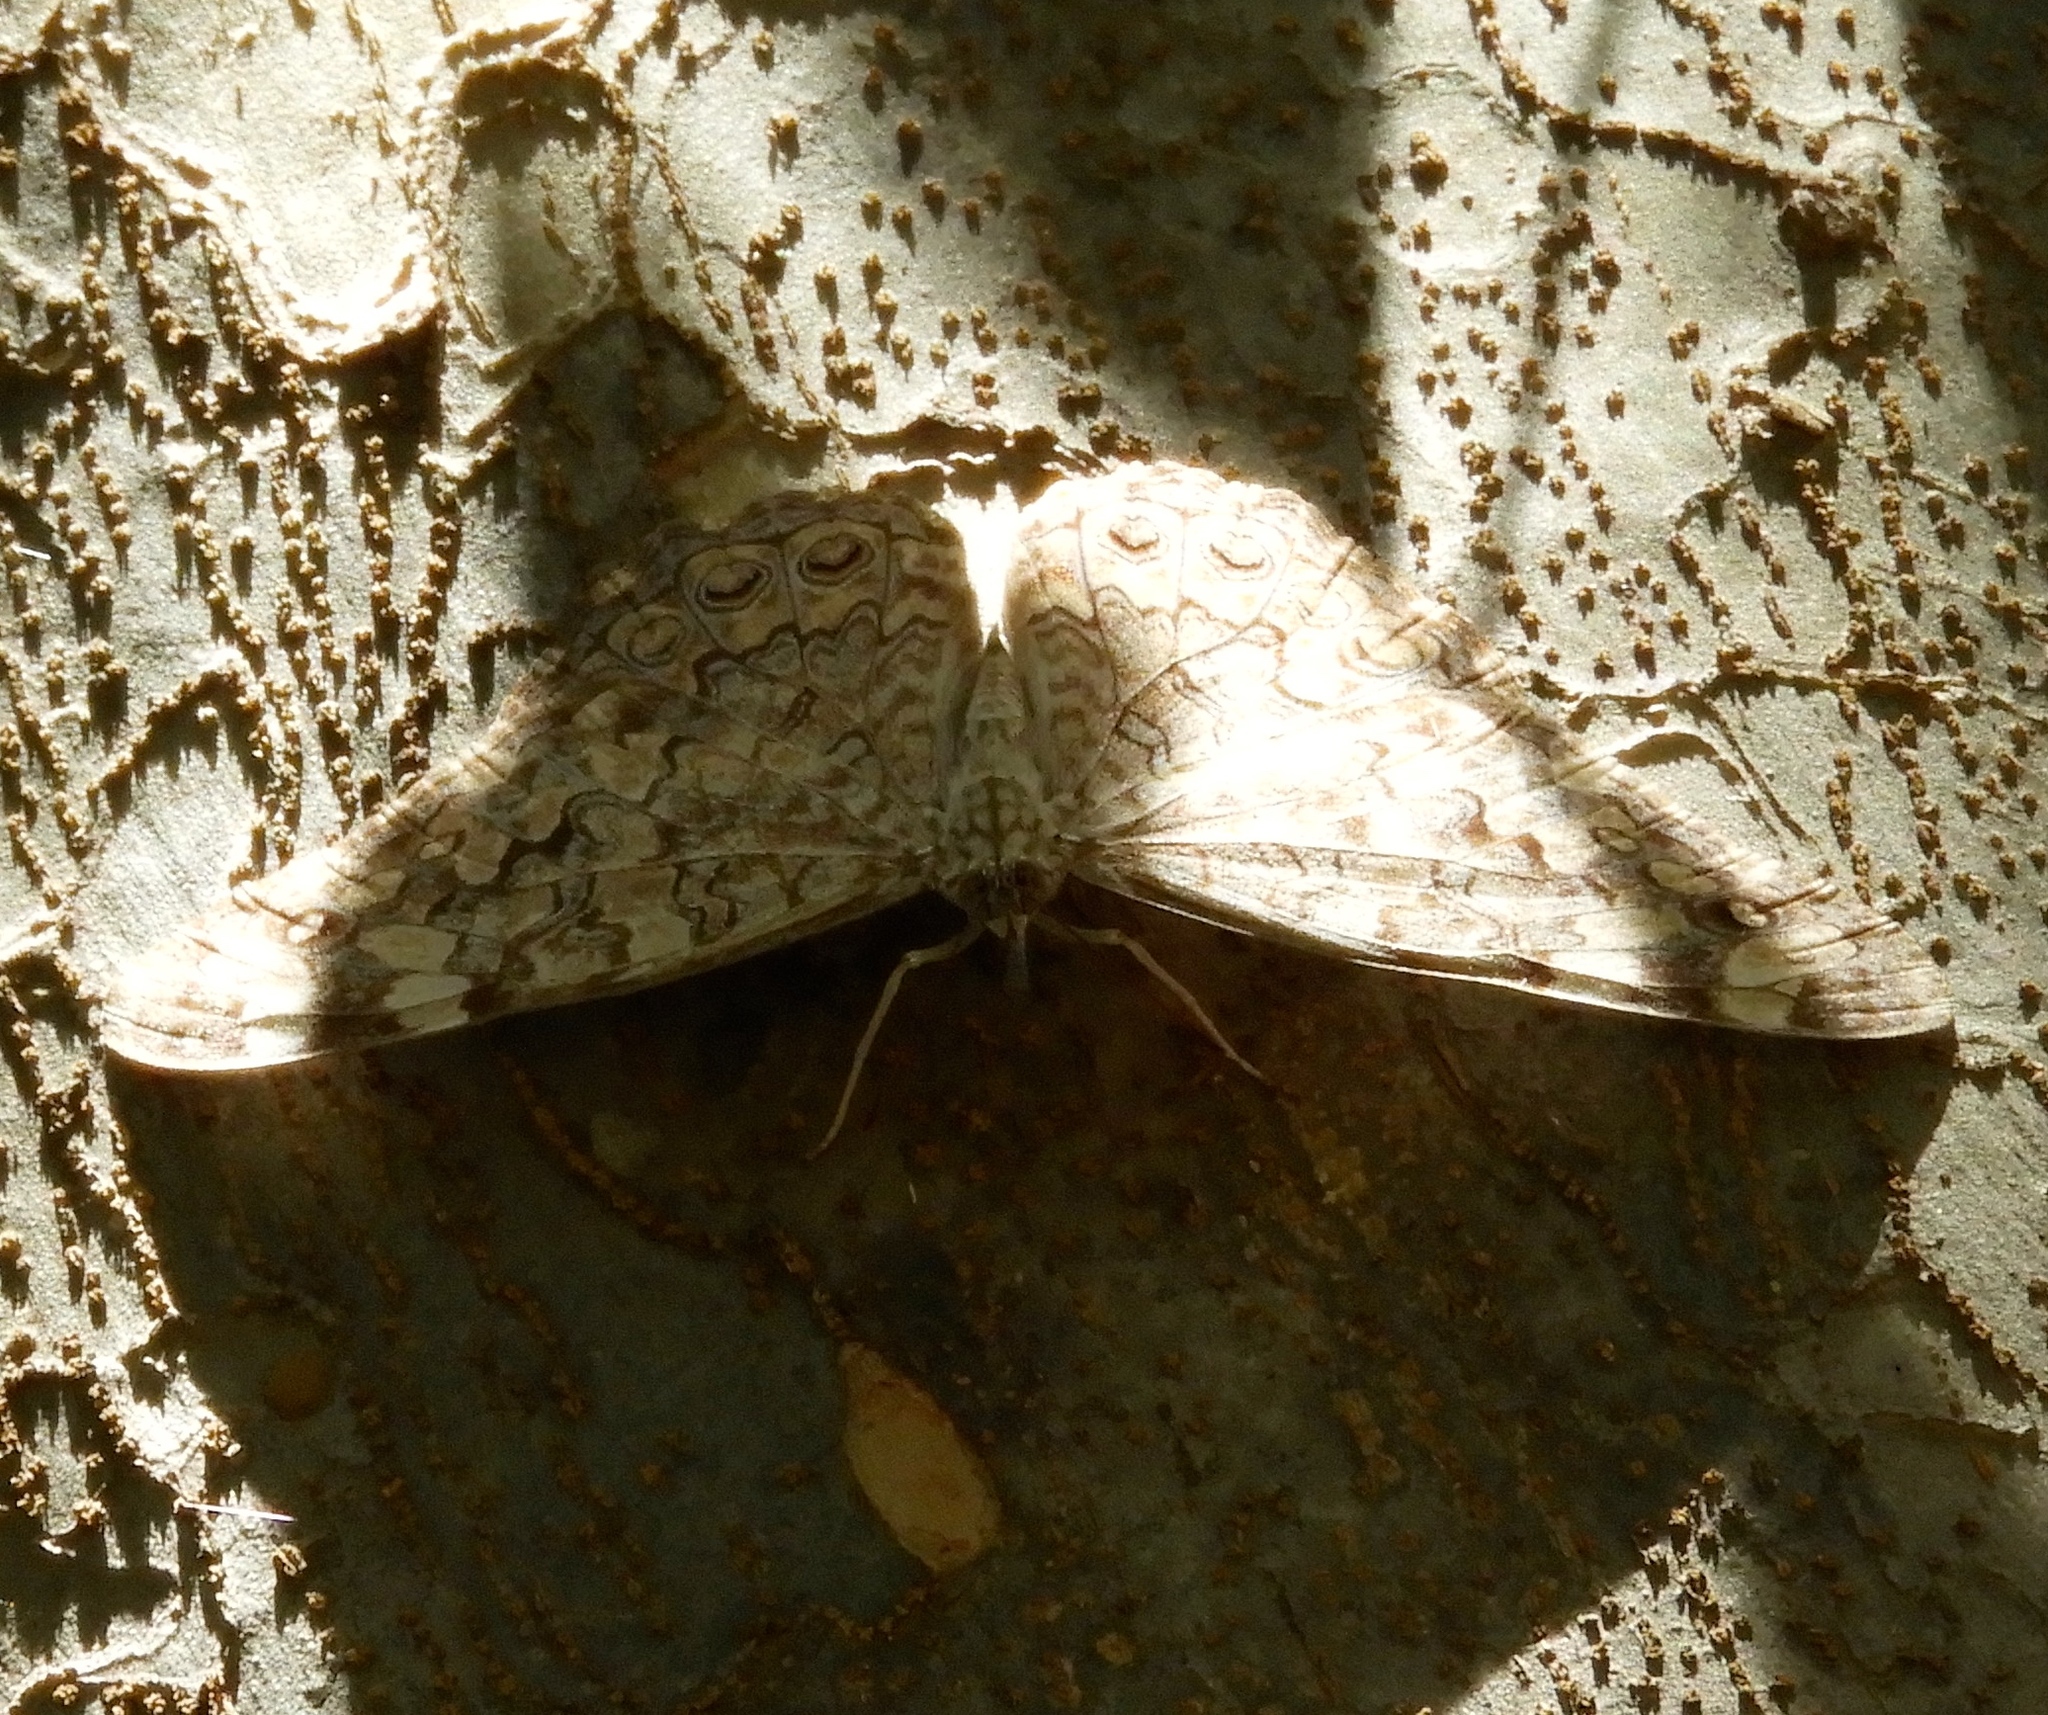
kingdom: Animalia
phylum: Arthropoda
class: Insecta
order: Lepidoptera
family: Nymphalidae
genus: Hamadryas
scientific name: Hamadryas februa
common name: Gray cracker
